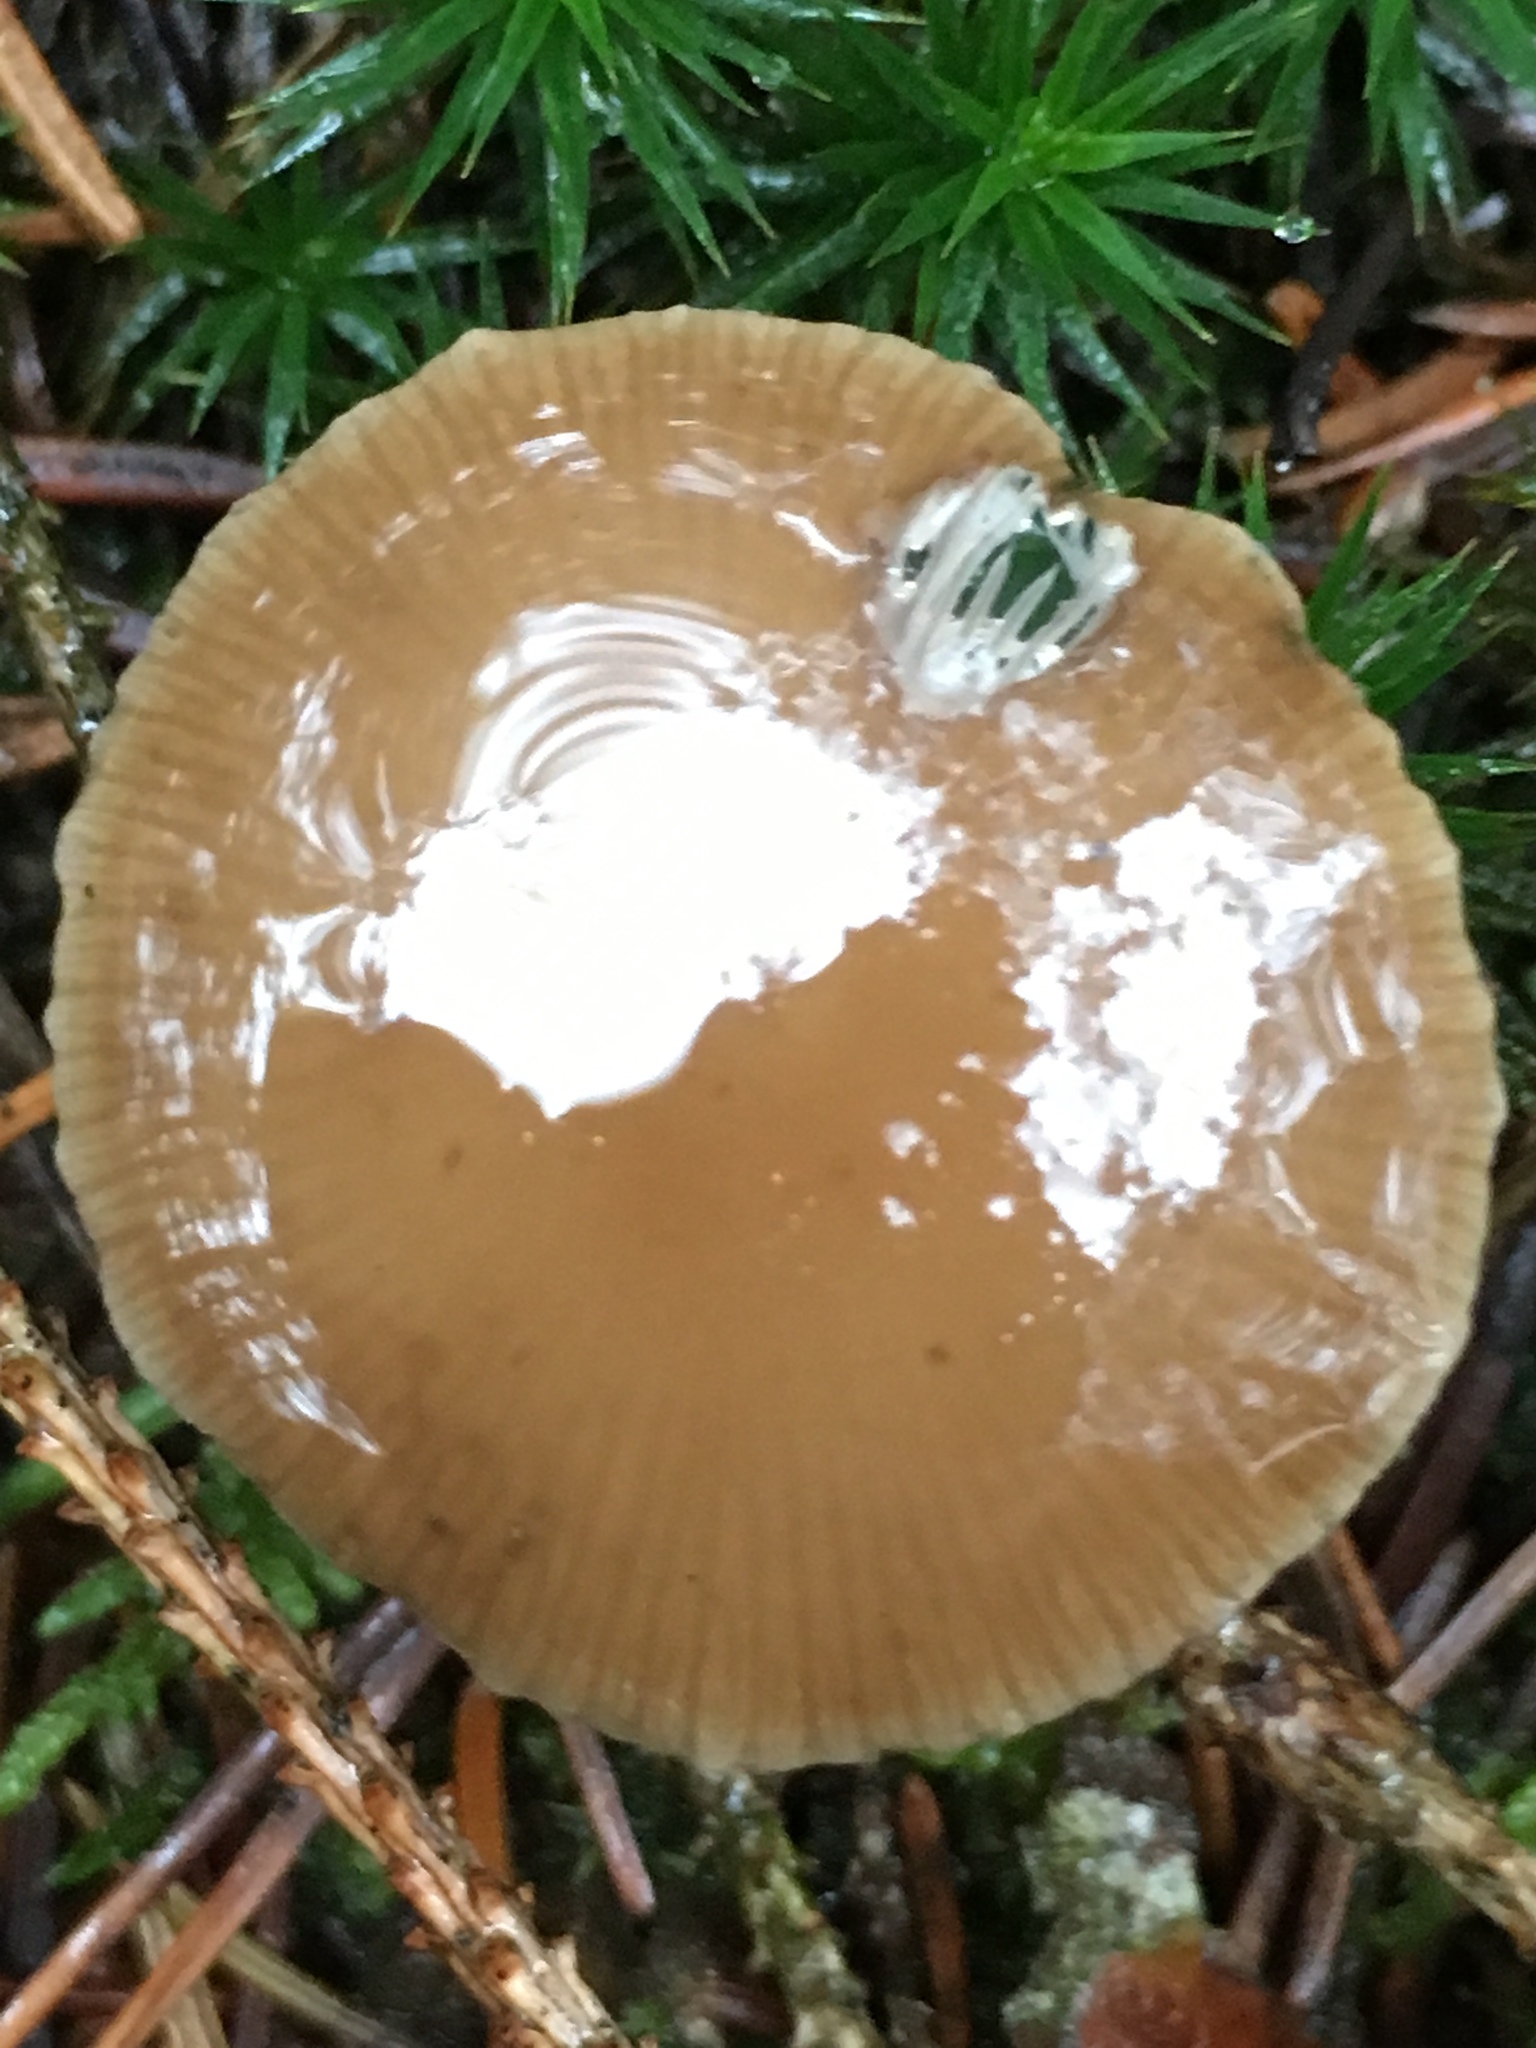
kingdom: Fungi
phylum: Basidiomycota
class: Agaricomycetes
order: Agaricales
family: Physalacriaceae
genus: Strobilurus
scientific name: Strobilurus esculentus
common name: Sprucecone cap
